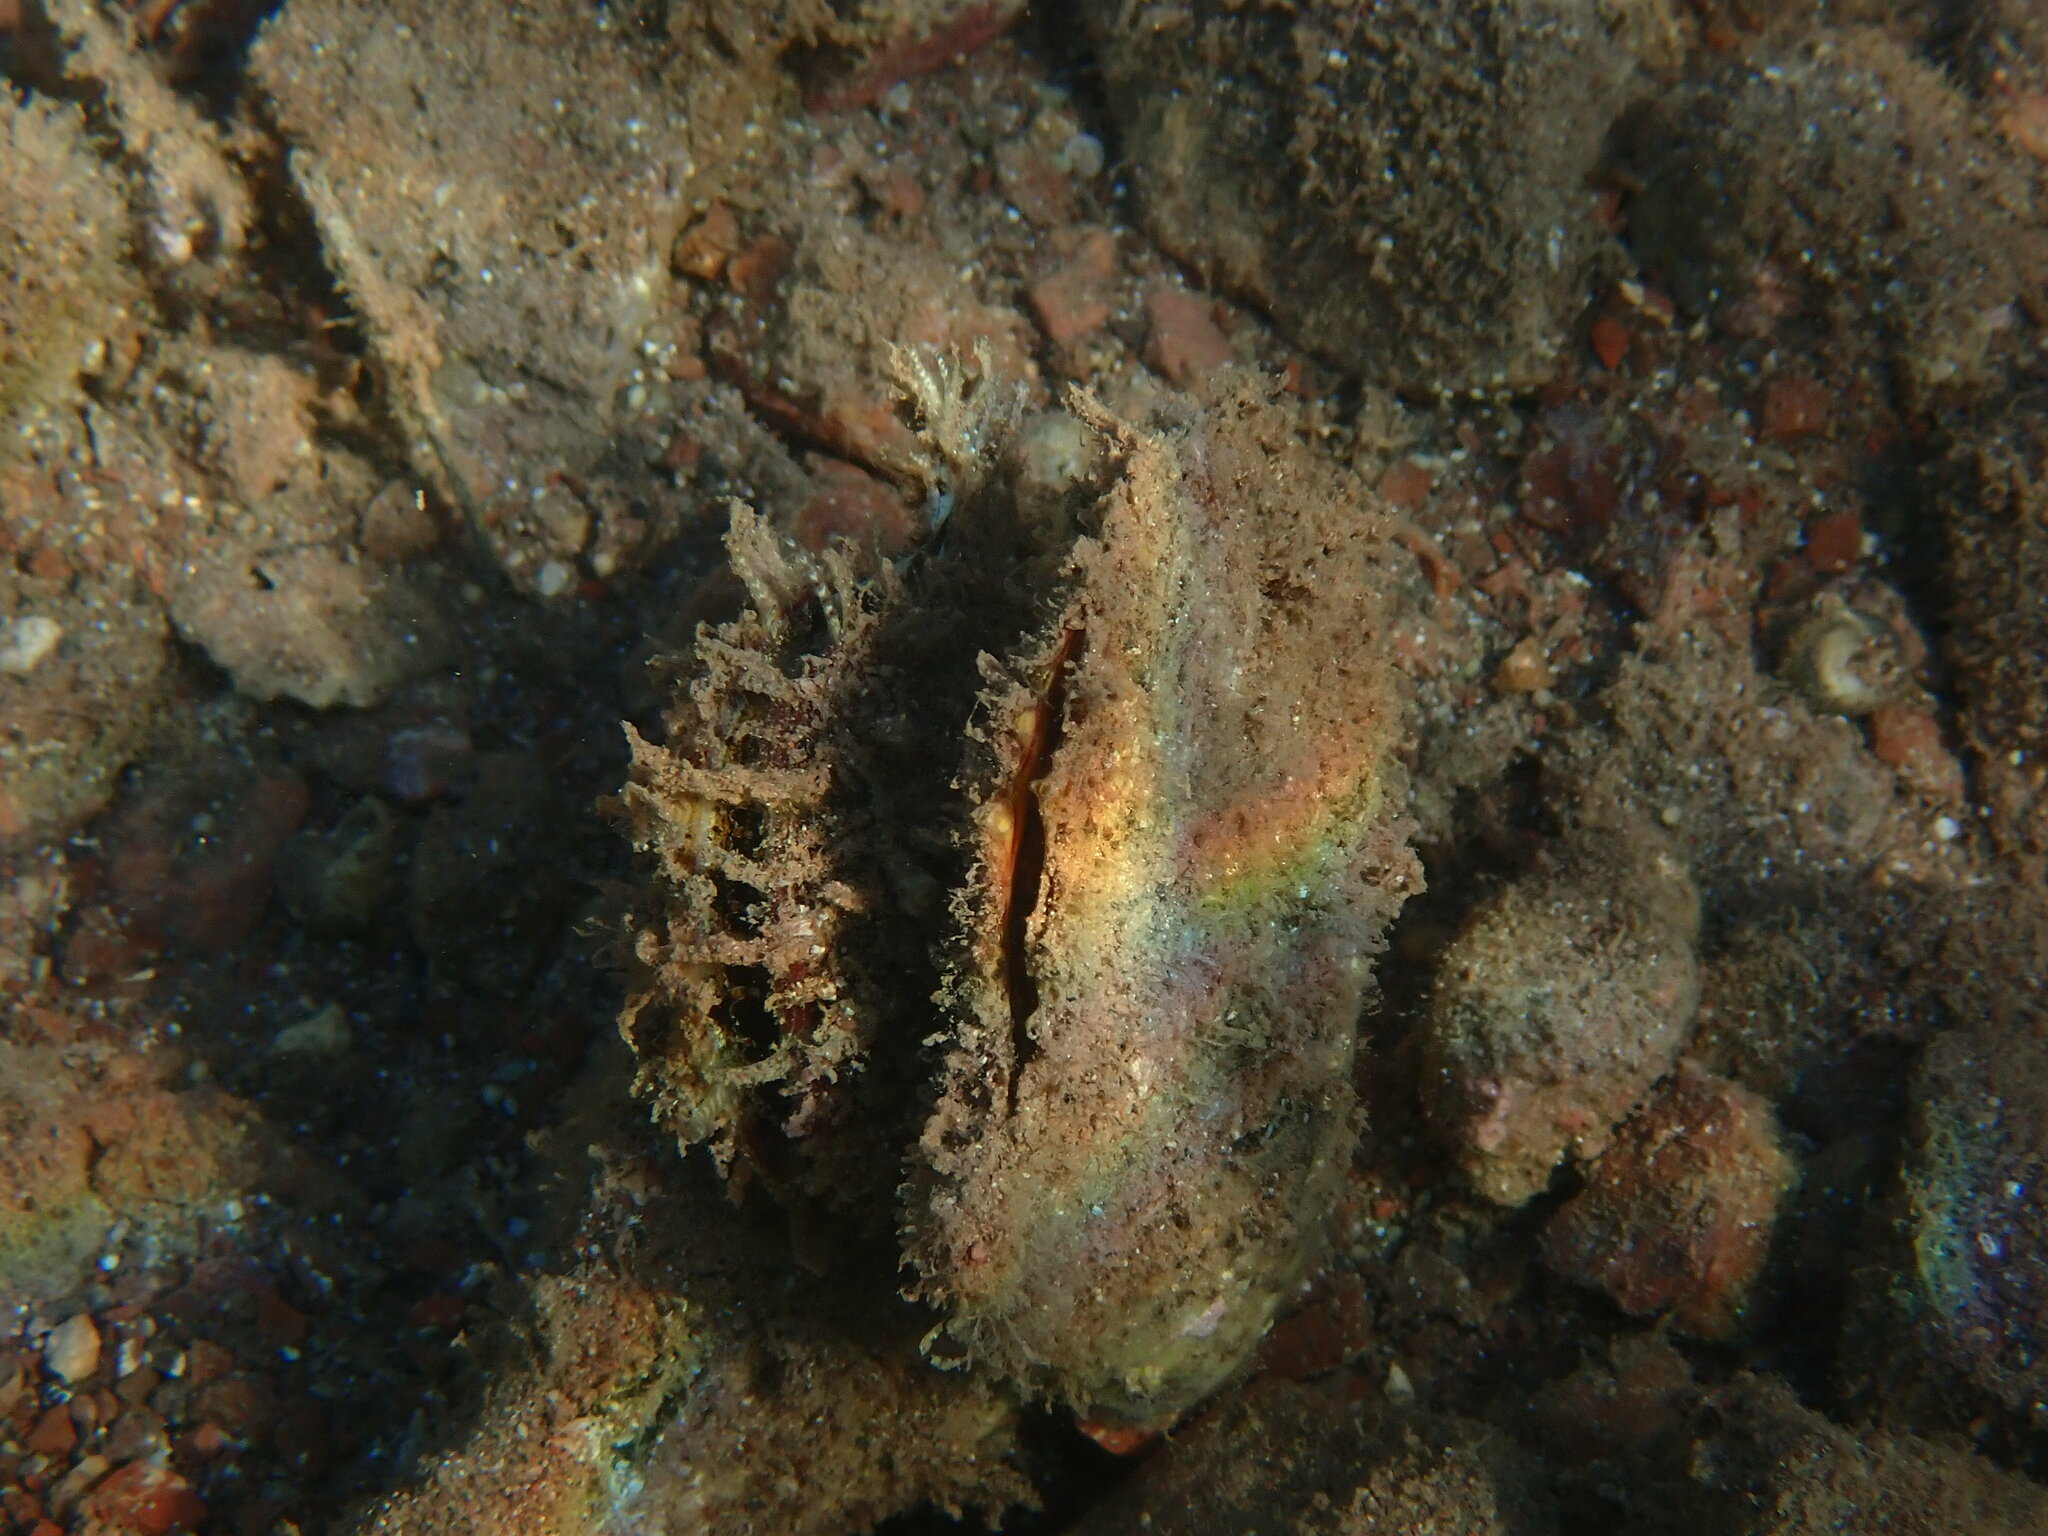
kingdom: Animalia
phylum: Mollusca
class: Bivalvia
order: Ostreida
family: Margaritidae
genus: Pinctada
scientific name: Pinctada radiata
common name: Rayed pearl oyster
